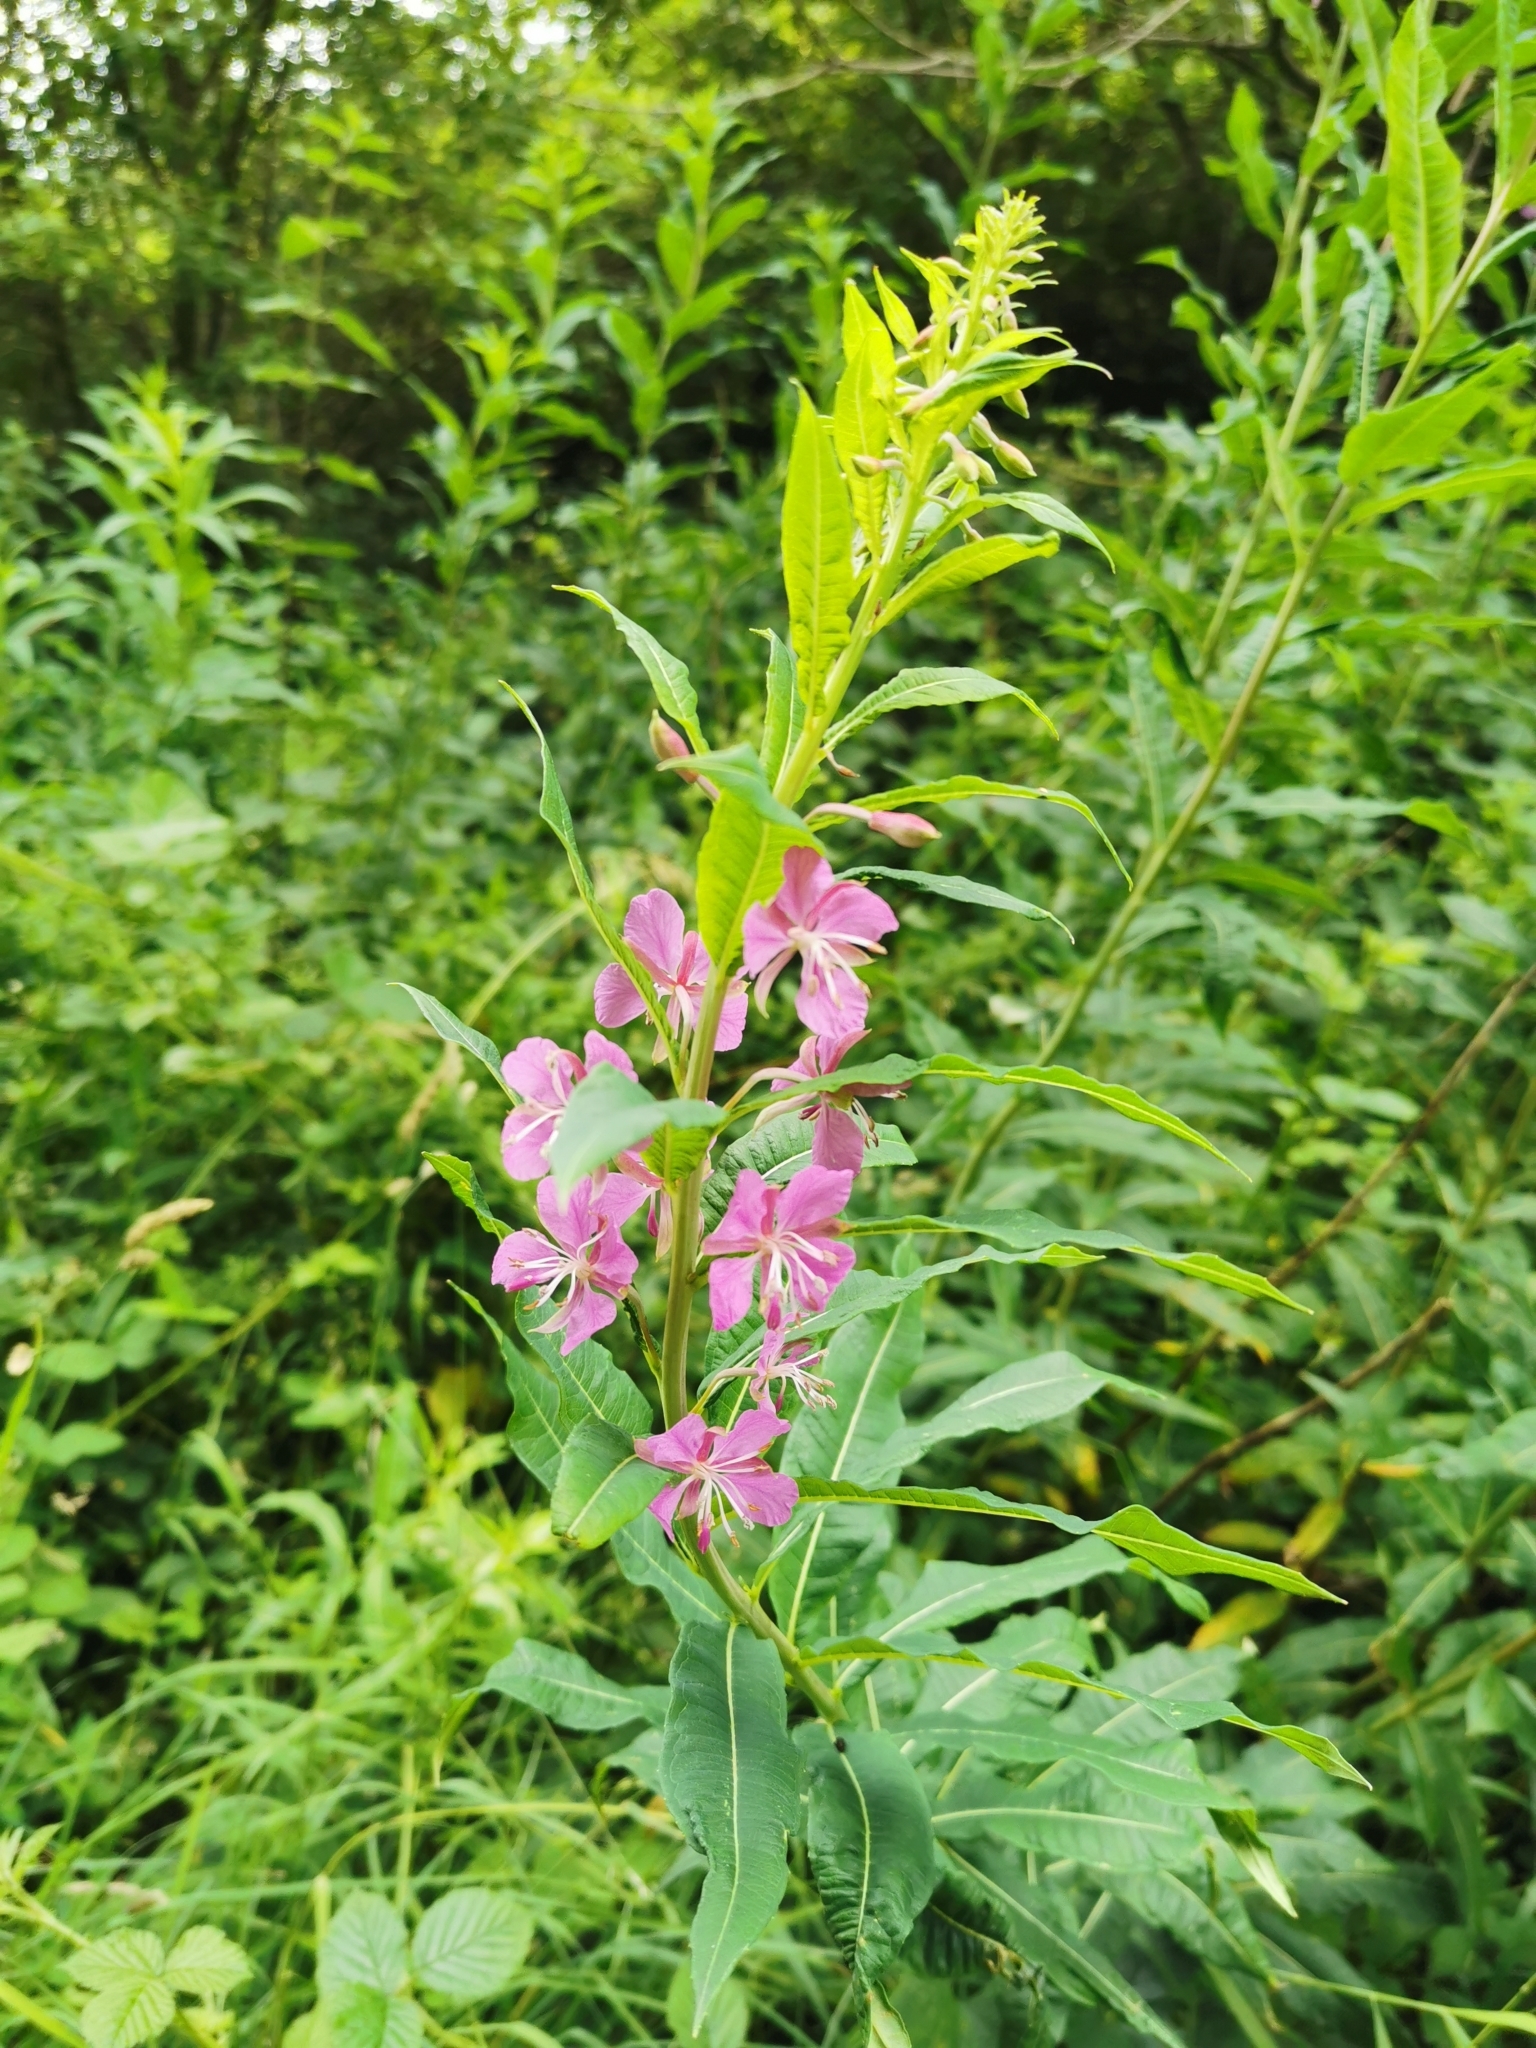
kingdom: Plantae
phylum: Tracheophyta
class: Magnoliopsida
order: Myrtales
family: Onagraceae
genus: Chamaenerion
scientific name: Chamaenerion angustifolium
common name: Fireweed
